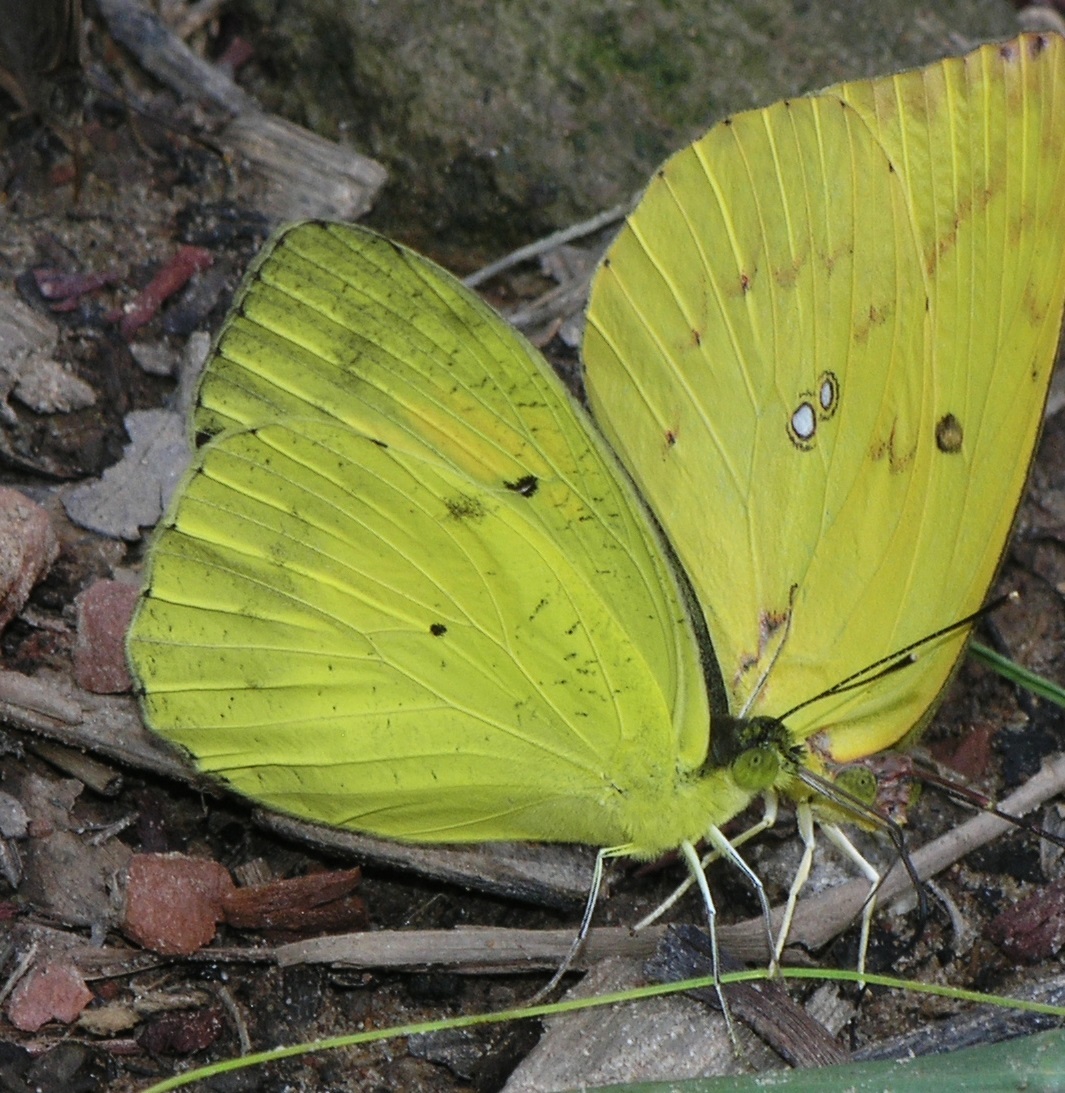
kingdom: Animalia
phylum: Arthropoda
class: Insecta
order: Lepidoptera
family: Pieridae
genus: Catopsilia
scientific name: Catopsilia pomona
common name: Common emigrant
